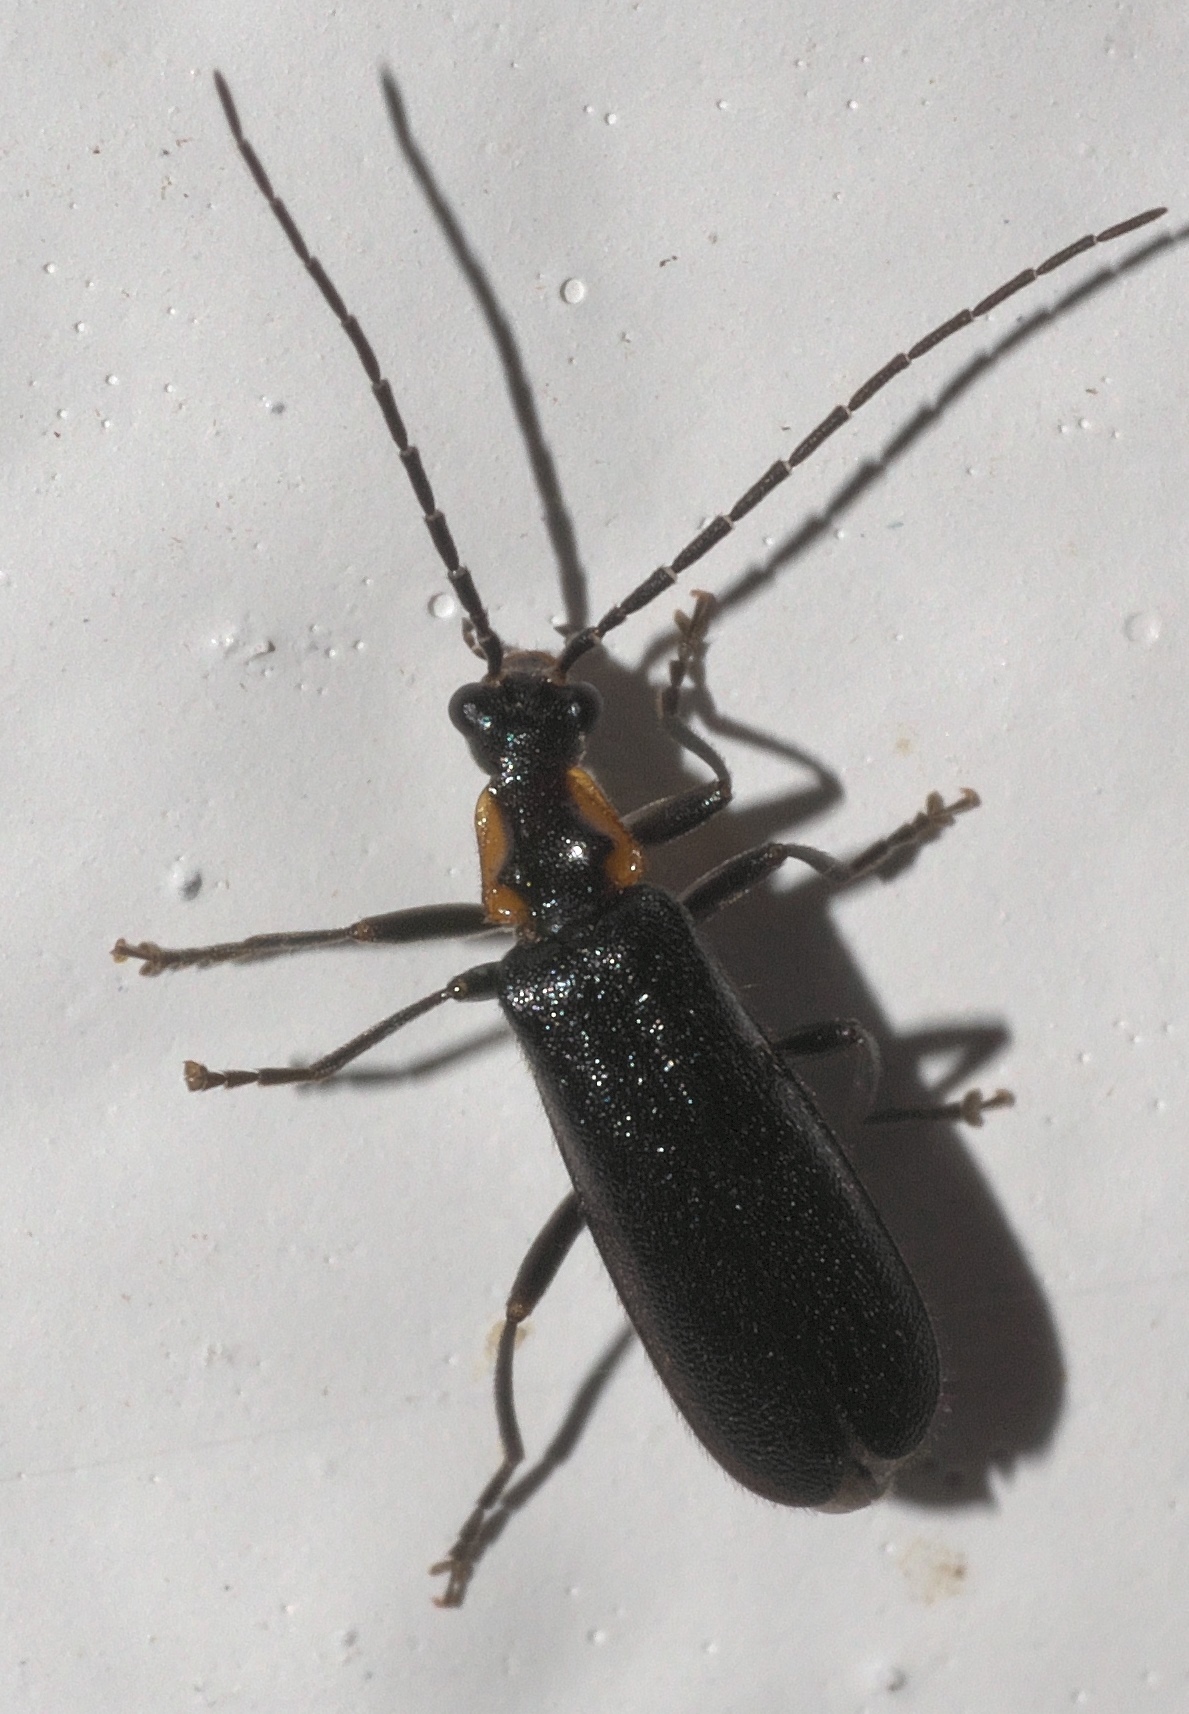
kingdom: Animalia
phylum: Arthropoda
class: Insecta
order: Coleoptera
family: Cantharidae
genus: Rhagonycha
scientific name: Rhagonycha angulata
